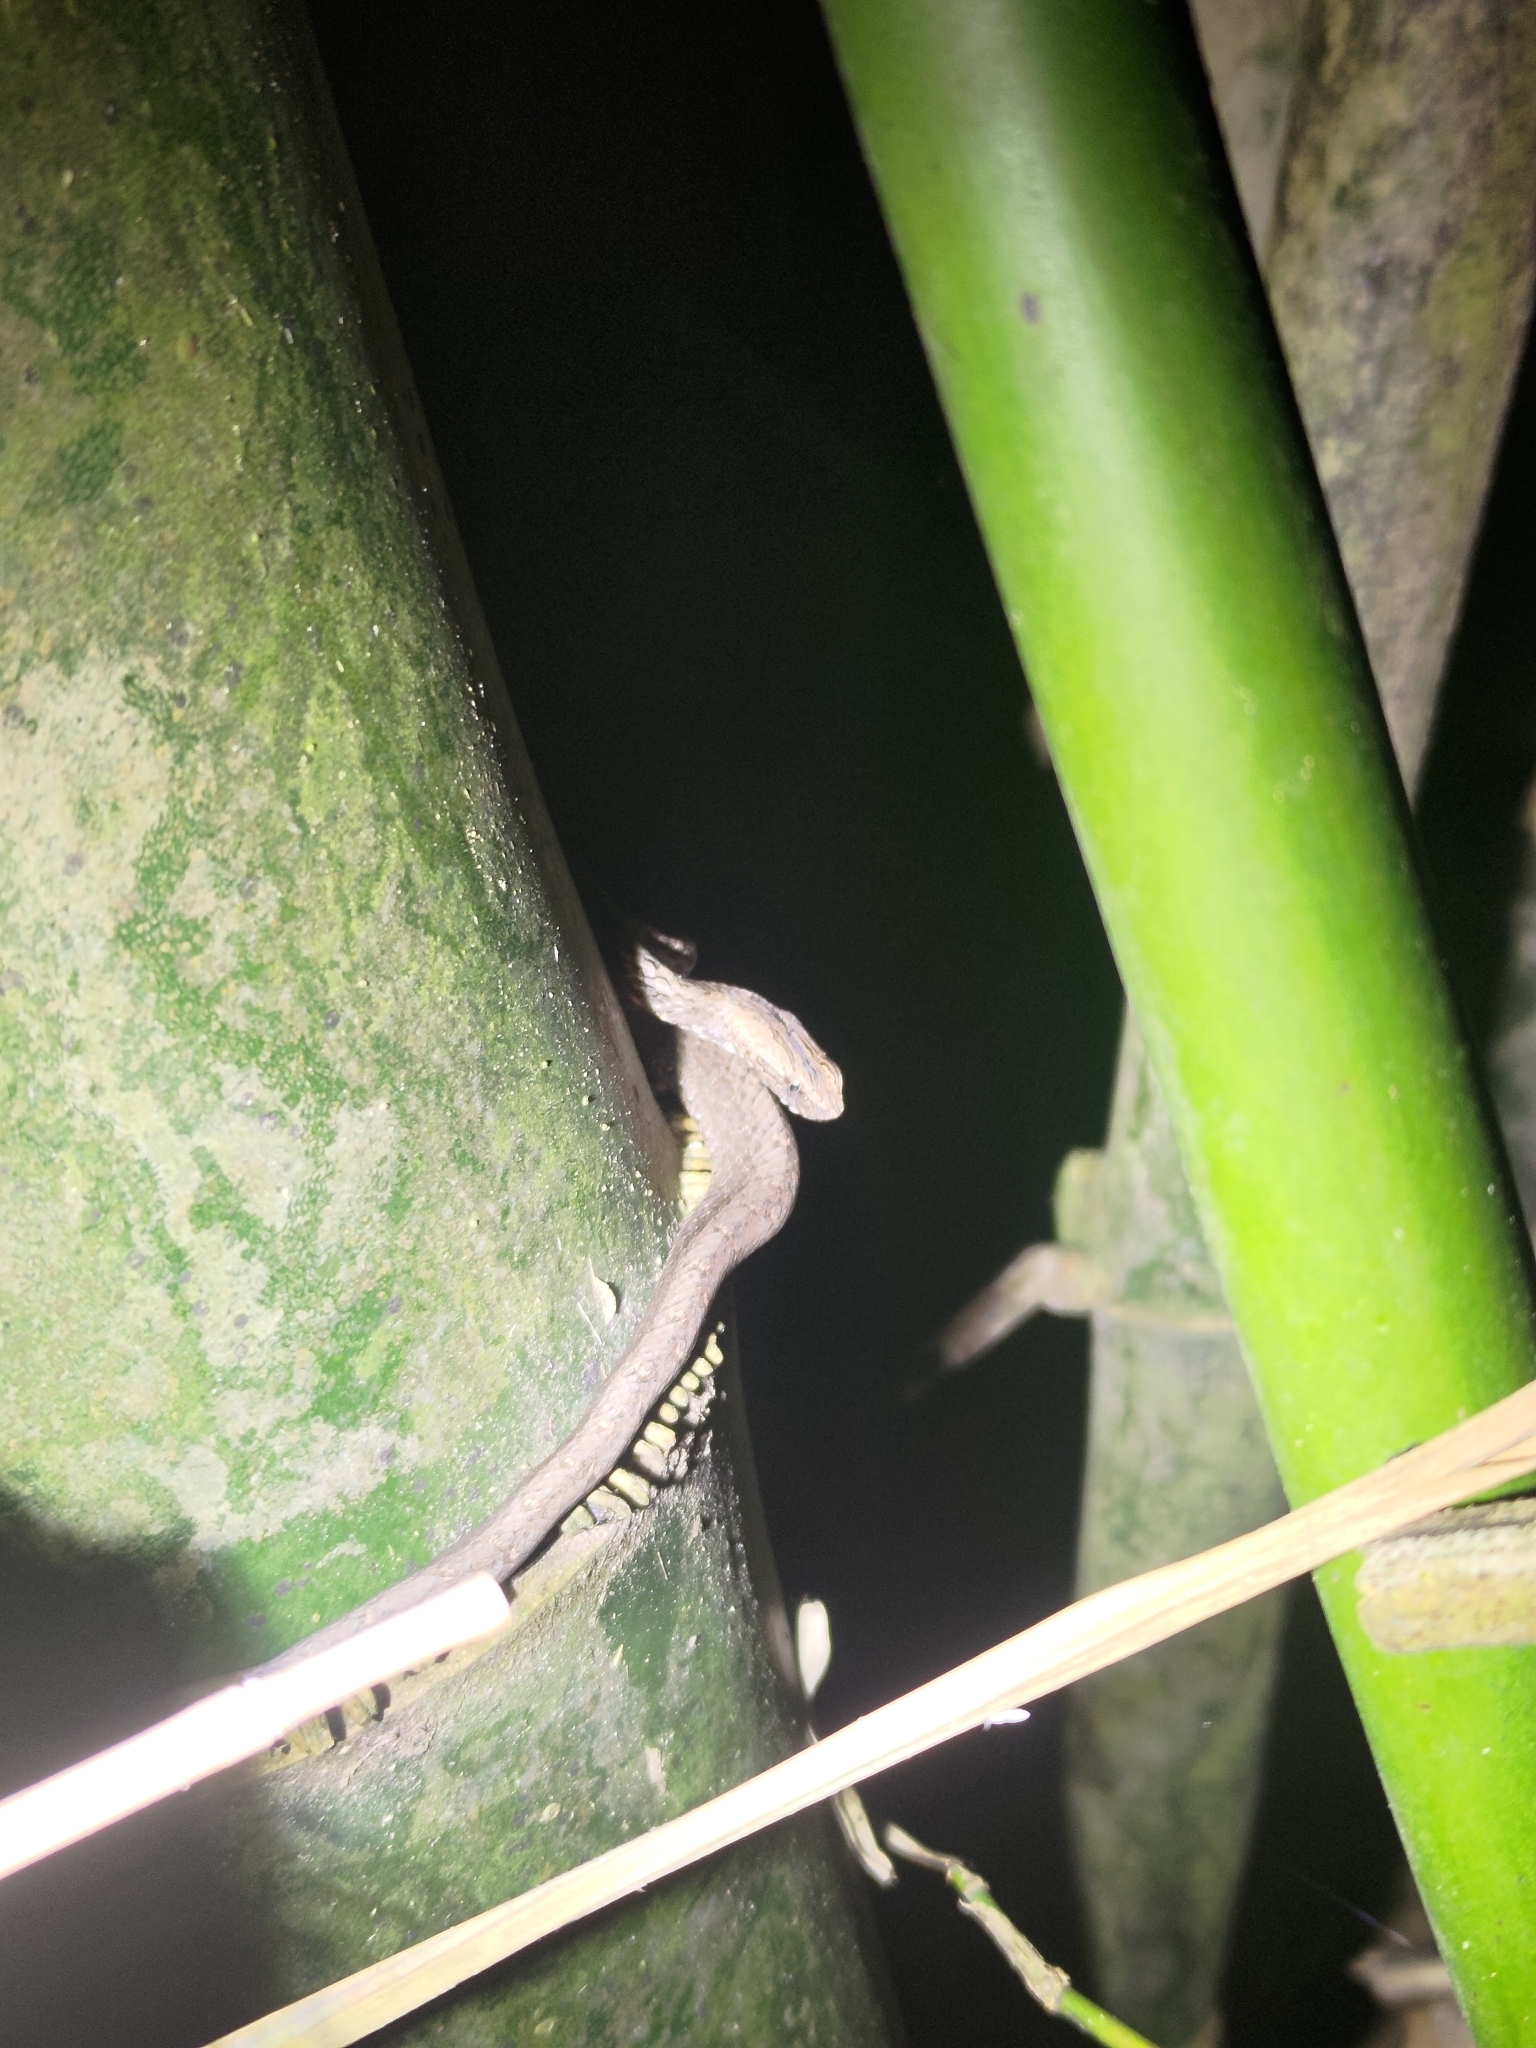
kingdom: Animalia
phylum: Chordata
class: Squamata
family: Pseudaspididae
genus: Psammodynastes
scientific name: Psammodynastes pulverulentus
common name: Common mock viper
